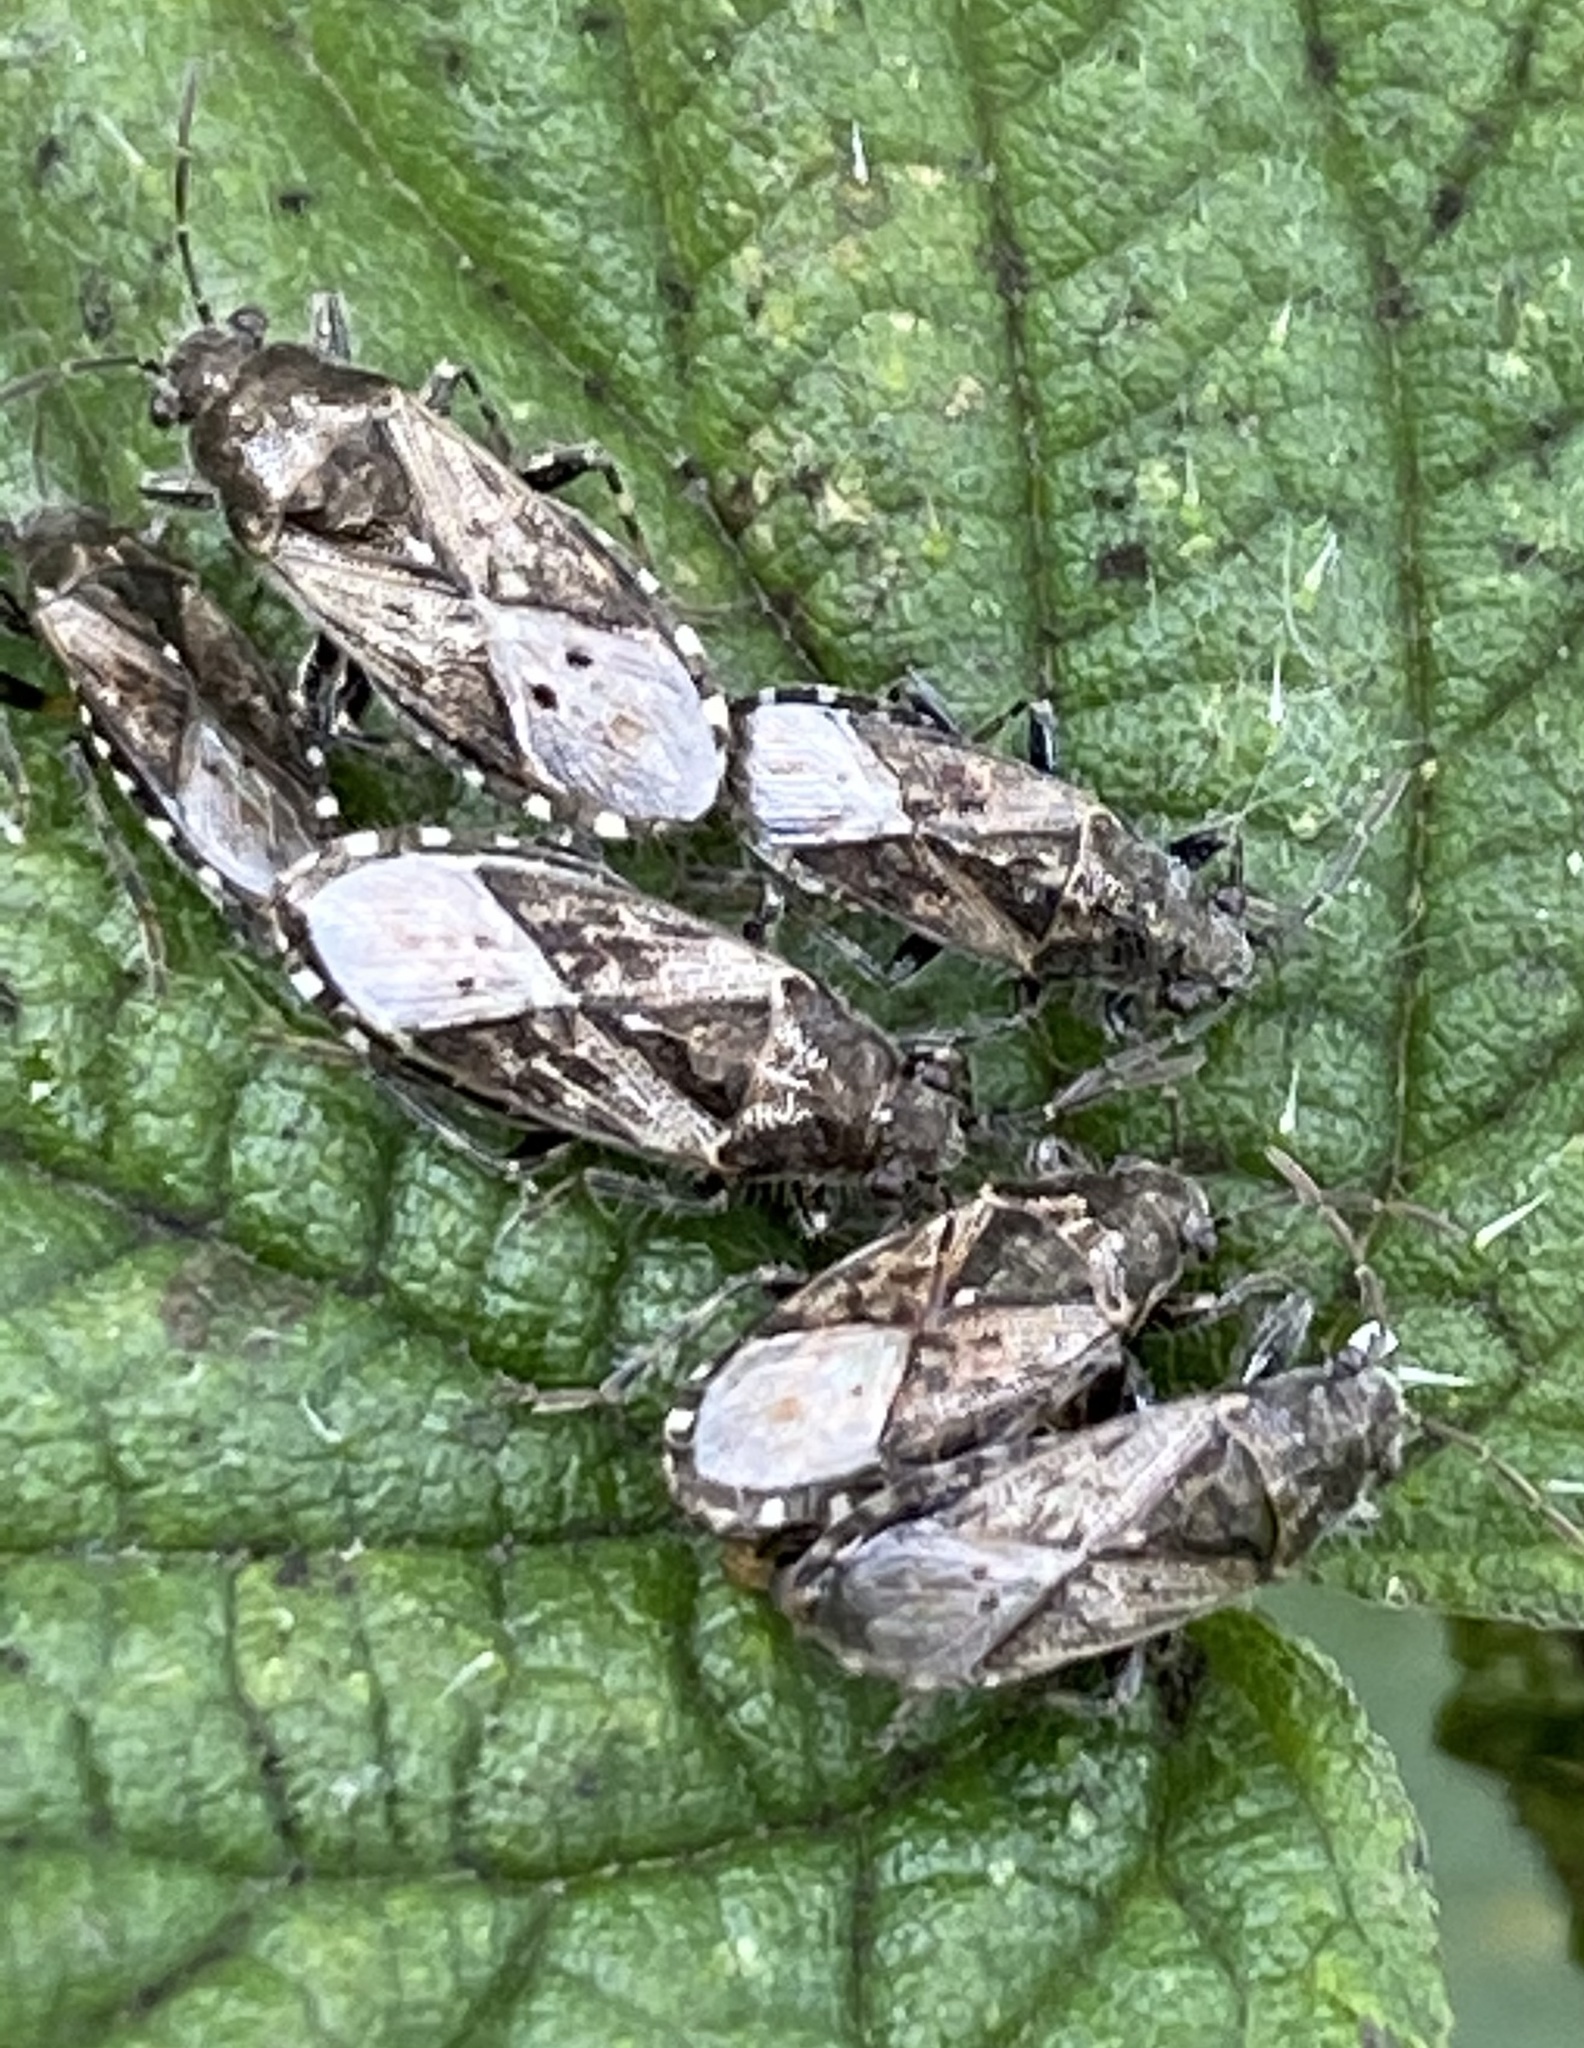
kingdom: Animalia
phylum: Arthropoda
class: Insecta
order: Hemiptera
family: Heterogastridae
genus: Heterogaster
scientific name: Heterogaster urticae
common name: Seed bug
